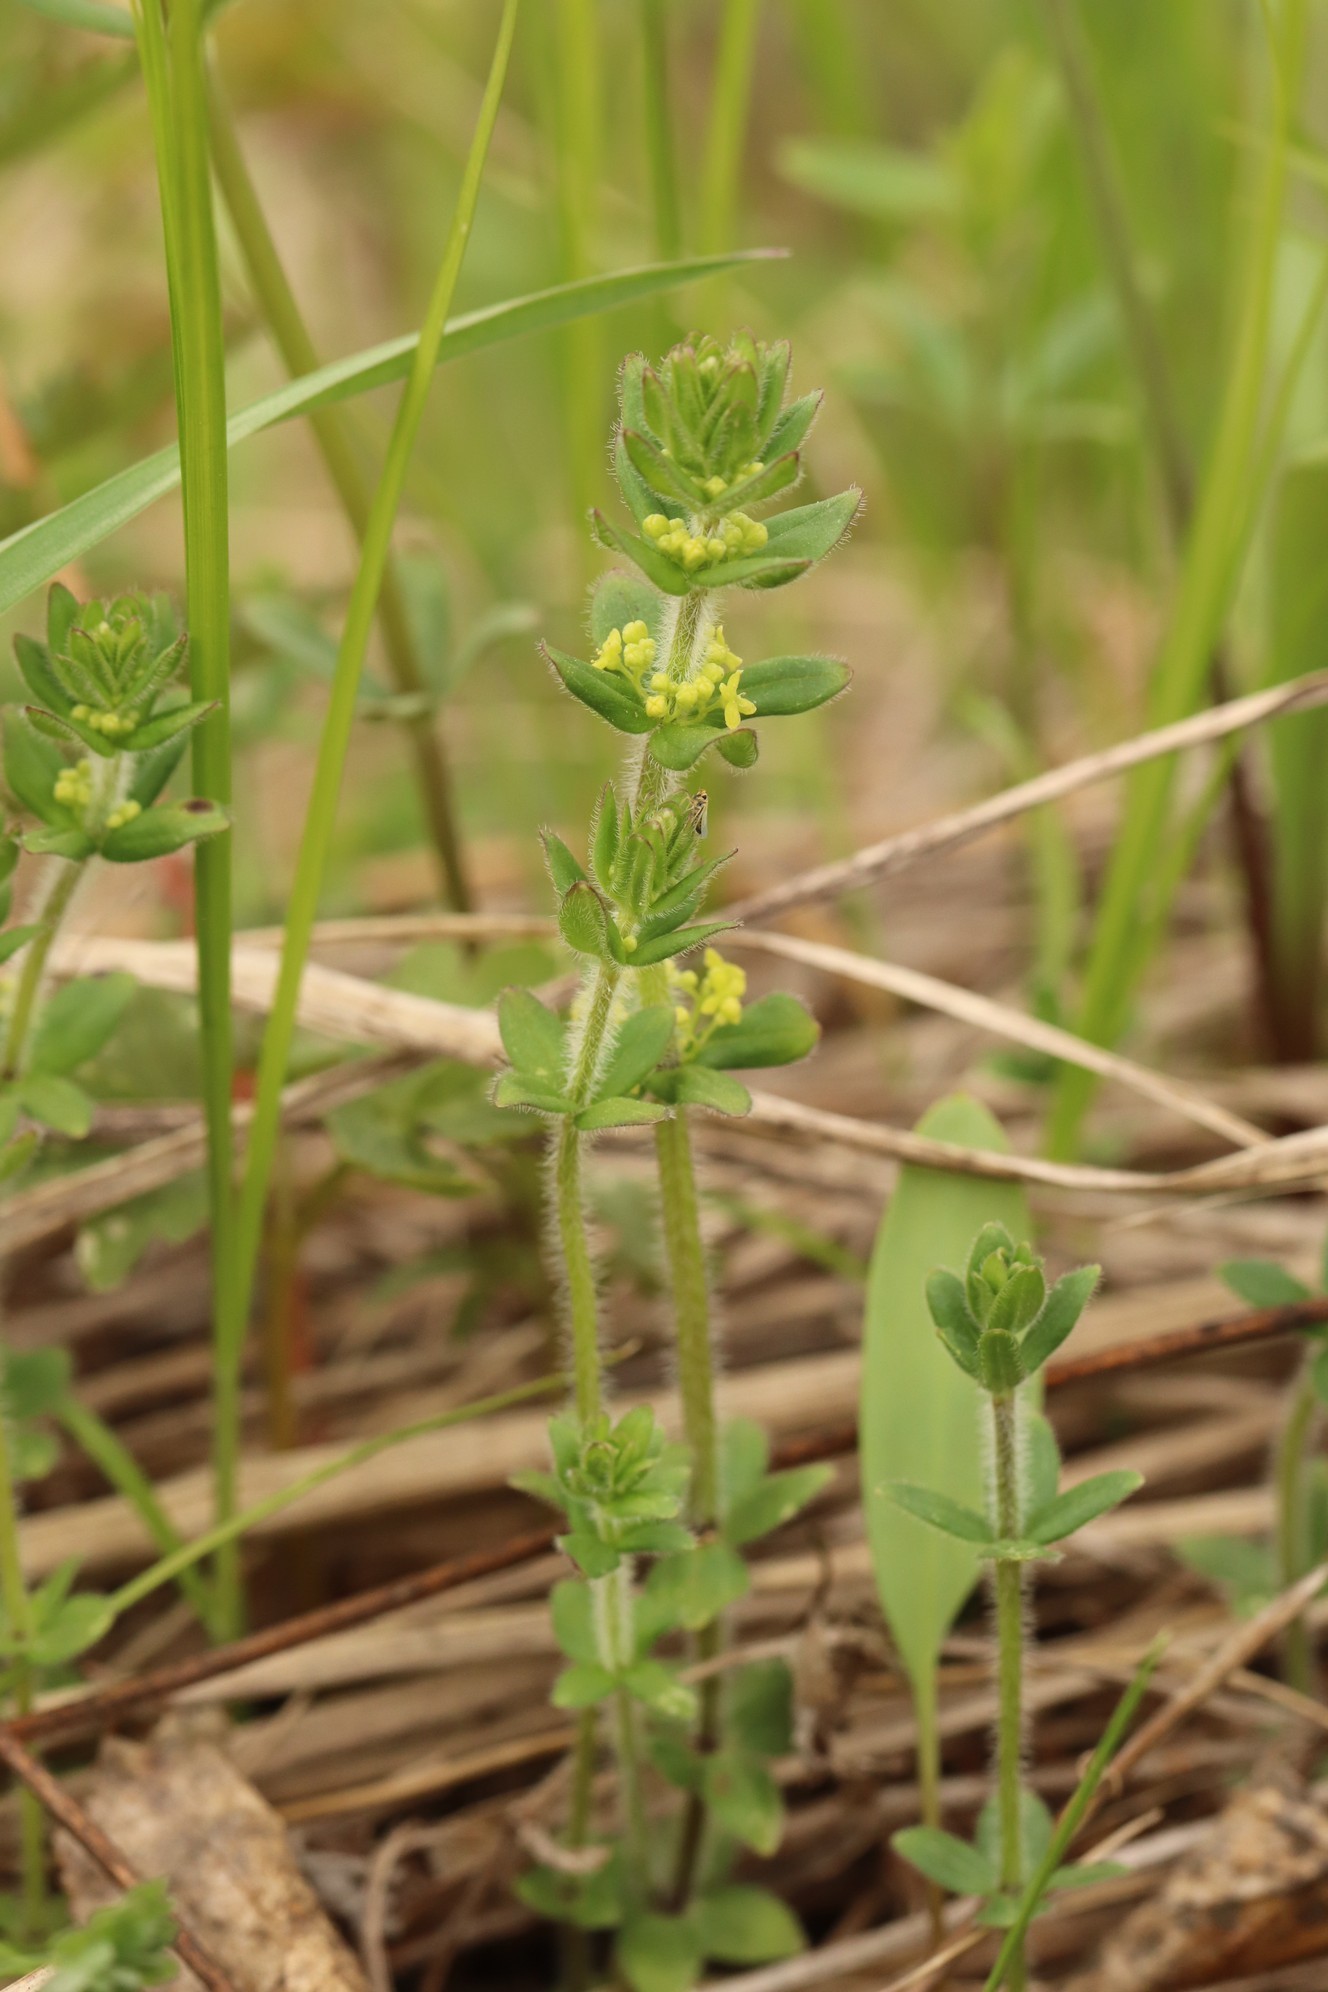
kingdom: Plantae
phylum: Tracheophyta
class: Magnoliopsida
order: Gentianales
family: Rubiaceae
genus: Cruciata
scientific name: Cruciata glabra
